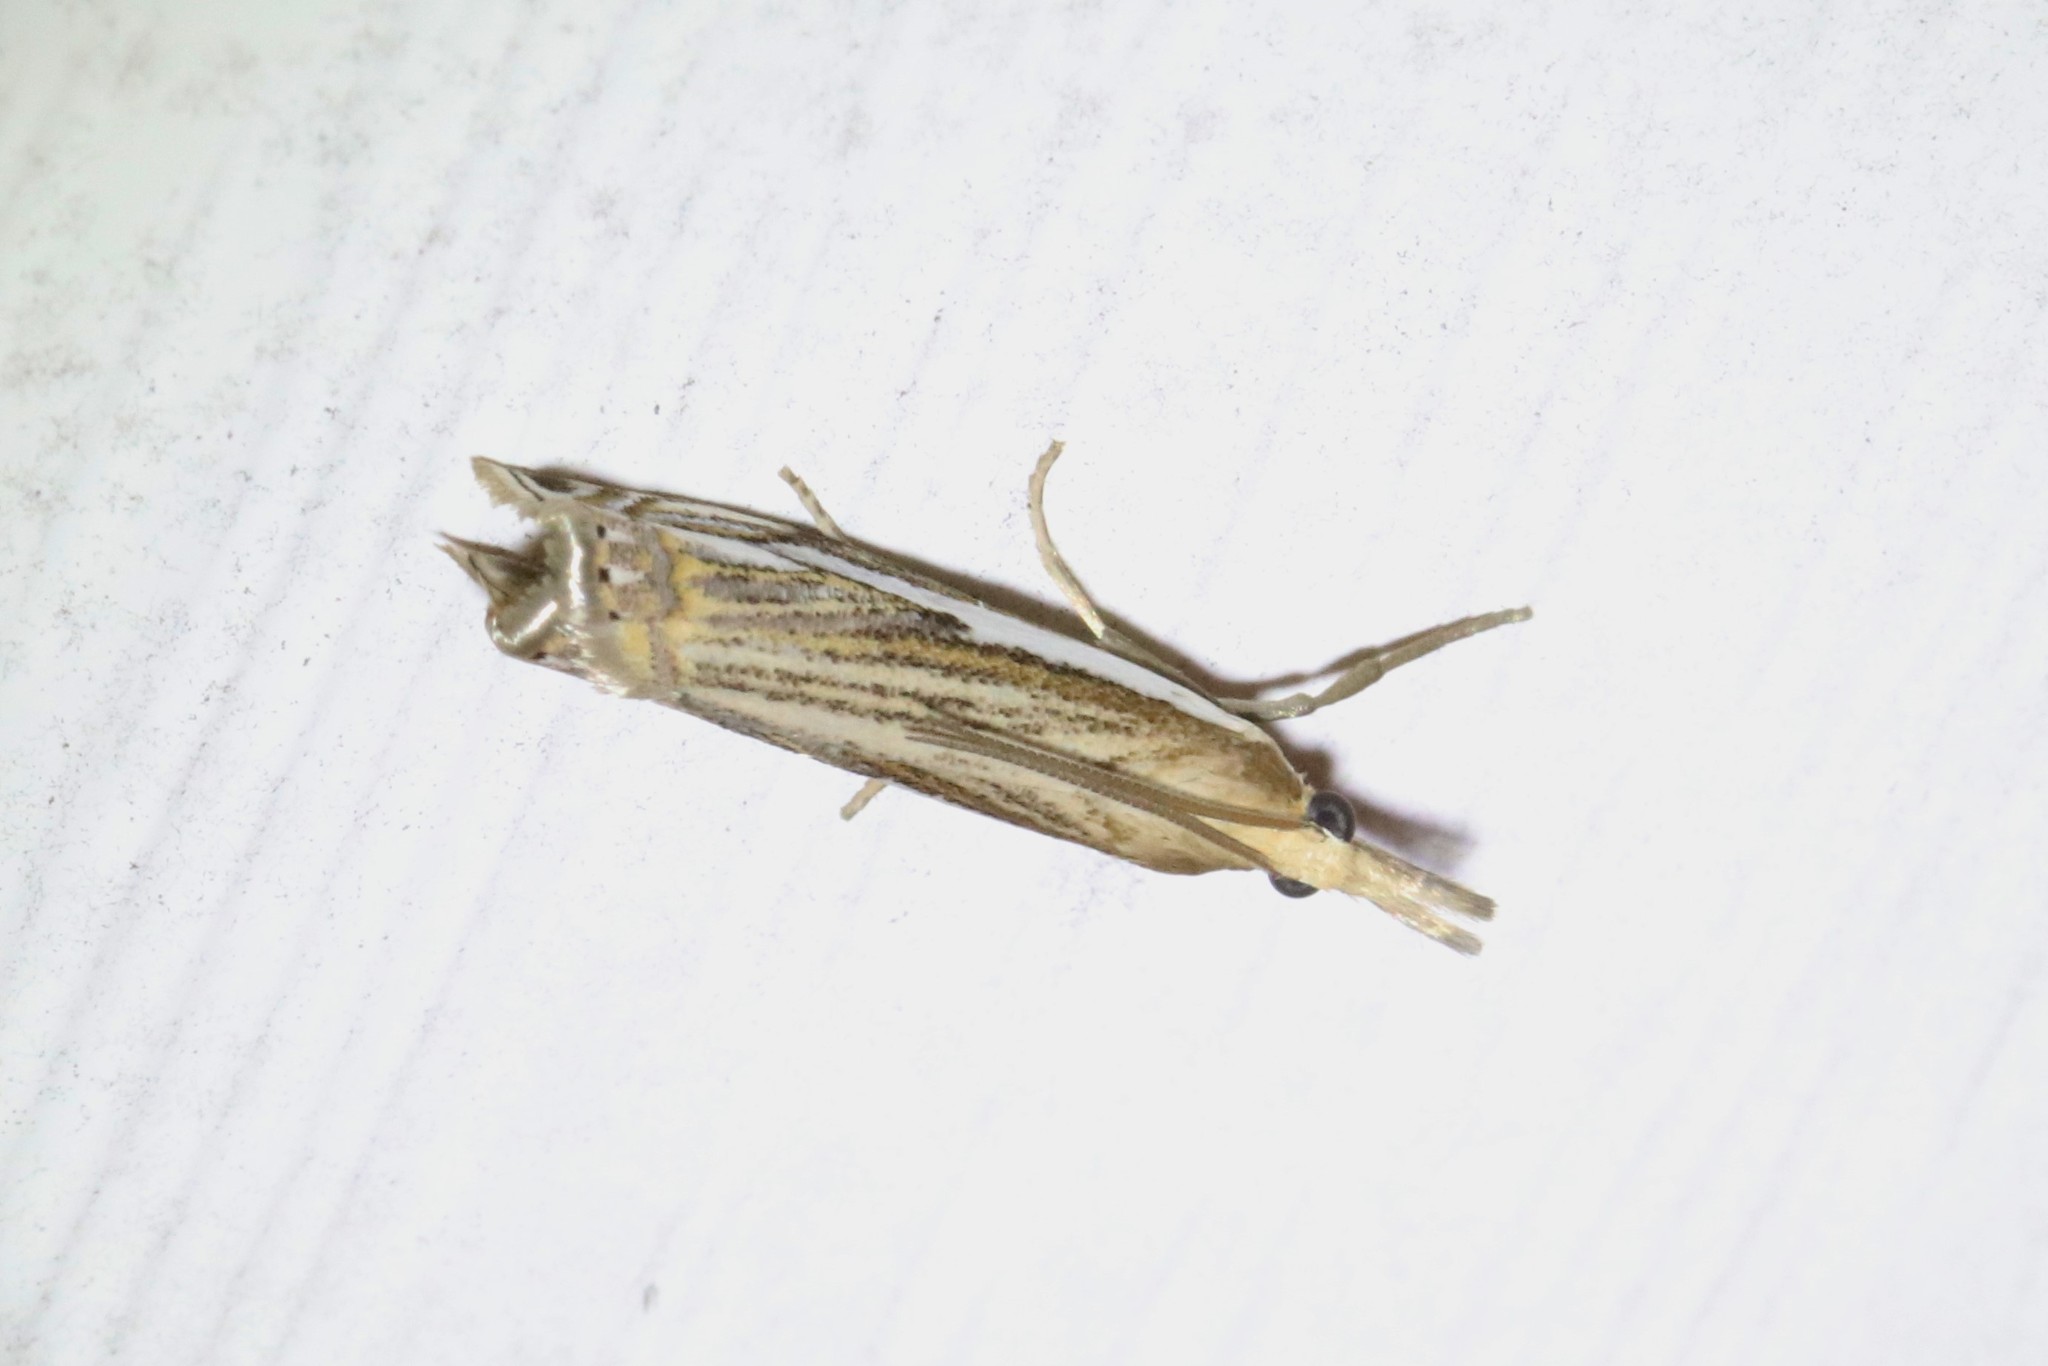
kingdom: Animalia
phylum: Arthropoda
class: Insecta
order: Lepidoptera
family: Crambidae
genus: Crambus
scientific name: Crambus saltuellus
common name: Pasture grass-veneer
